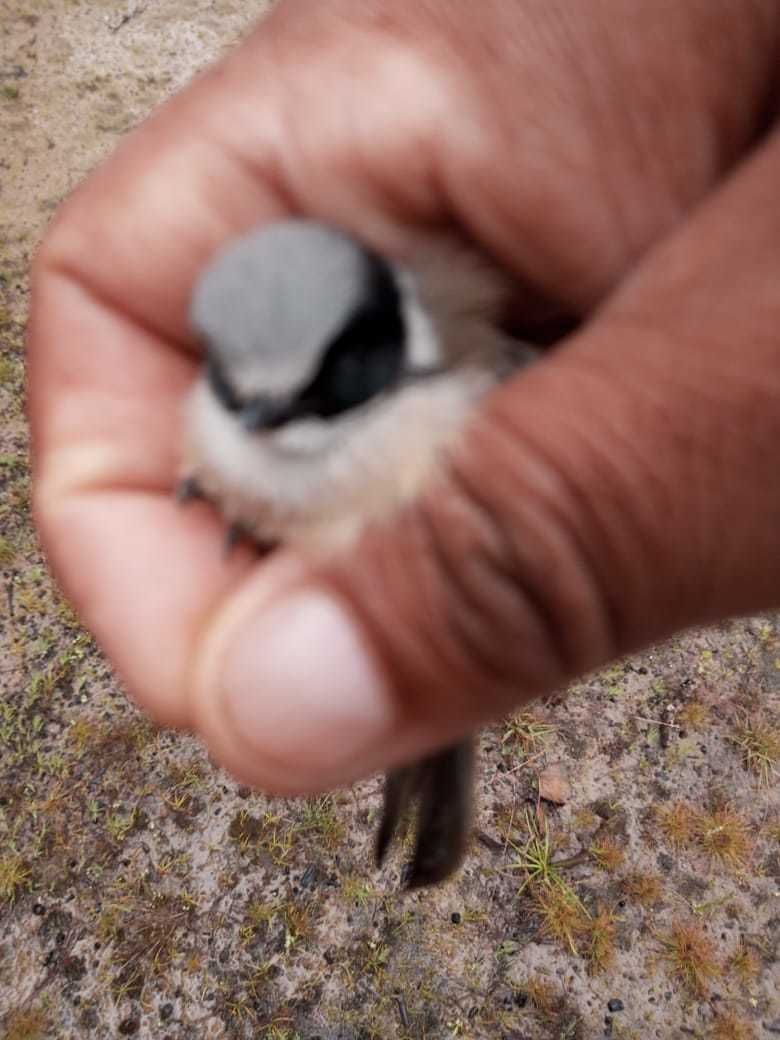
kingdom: Animalia
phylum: Chordata
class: Aves
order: Passeriformes
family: Aegithalidae
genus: Psaltriparus
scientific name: Psaltriparus minimus
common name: American bushtit
